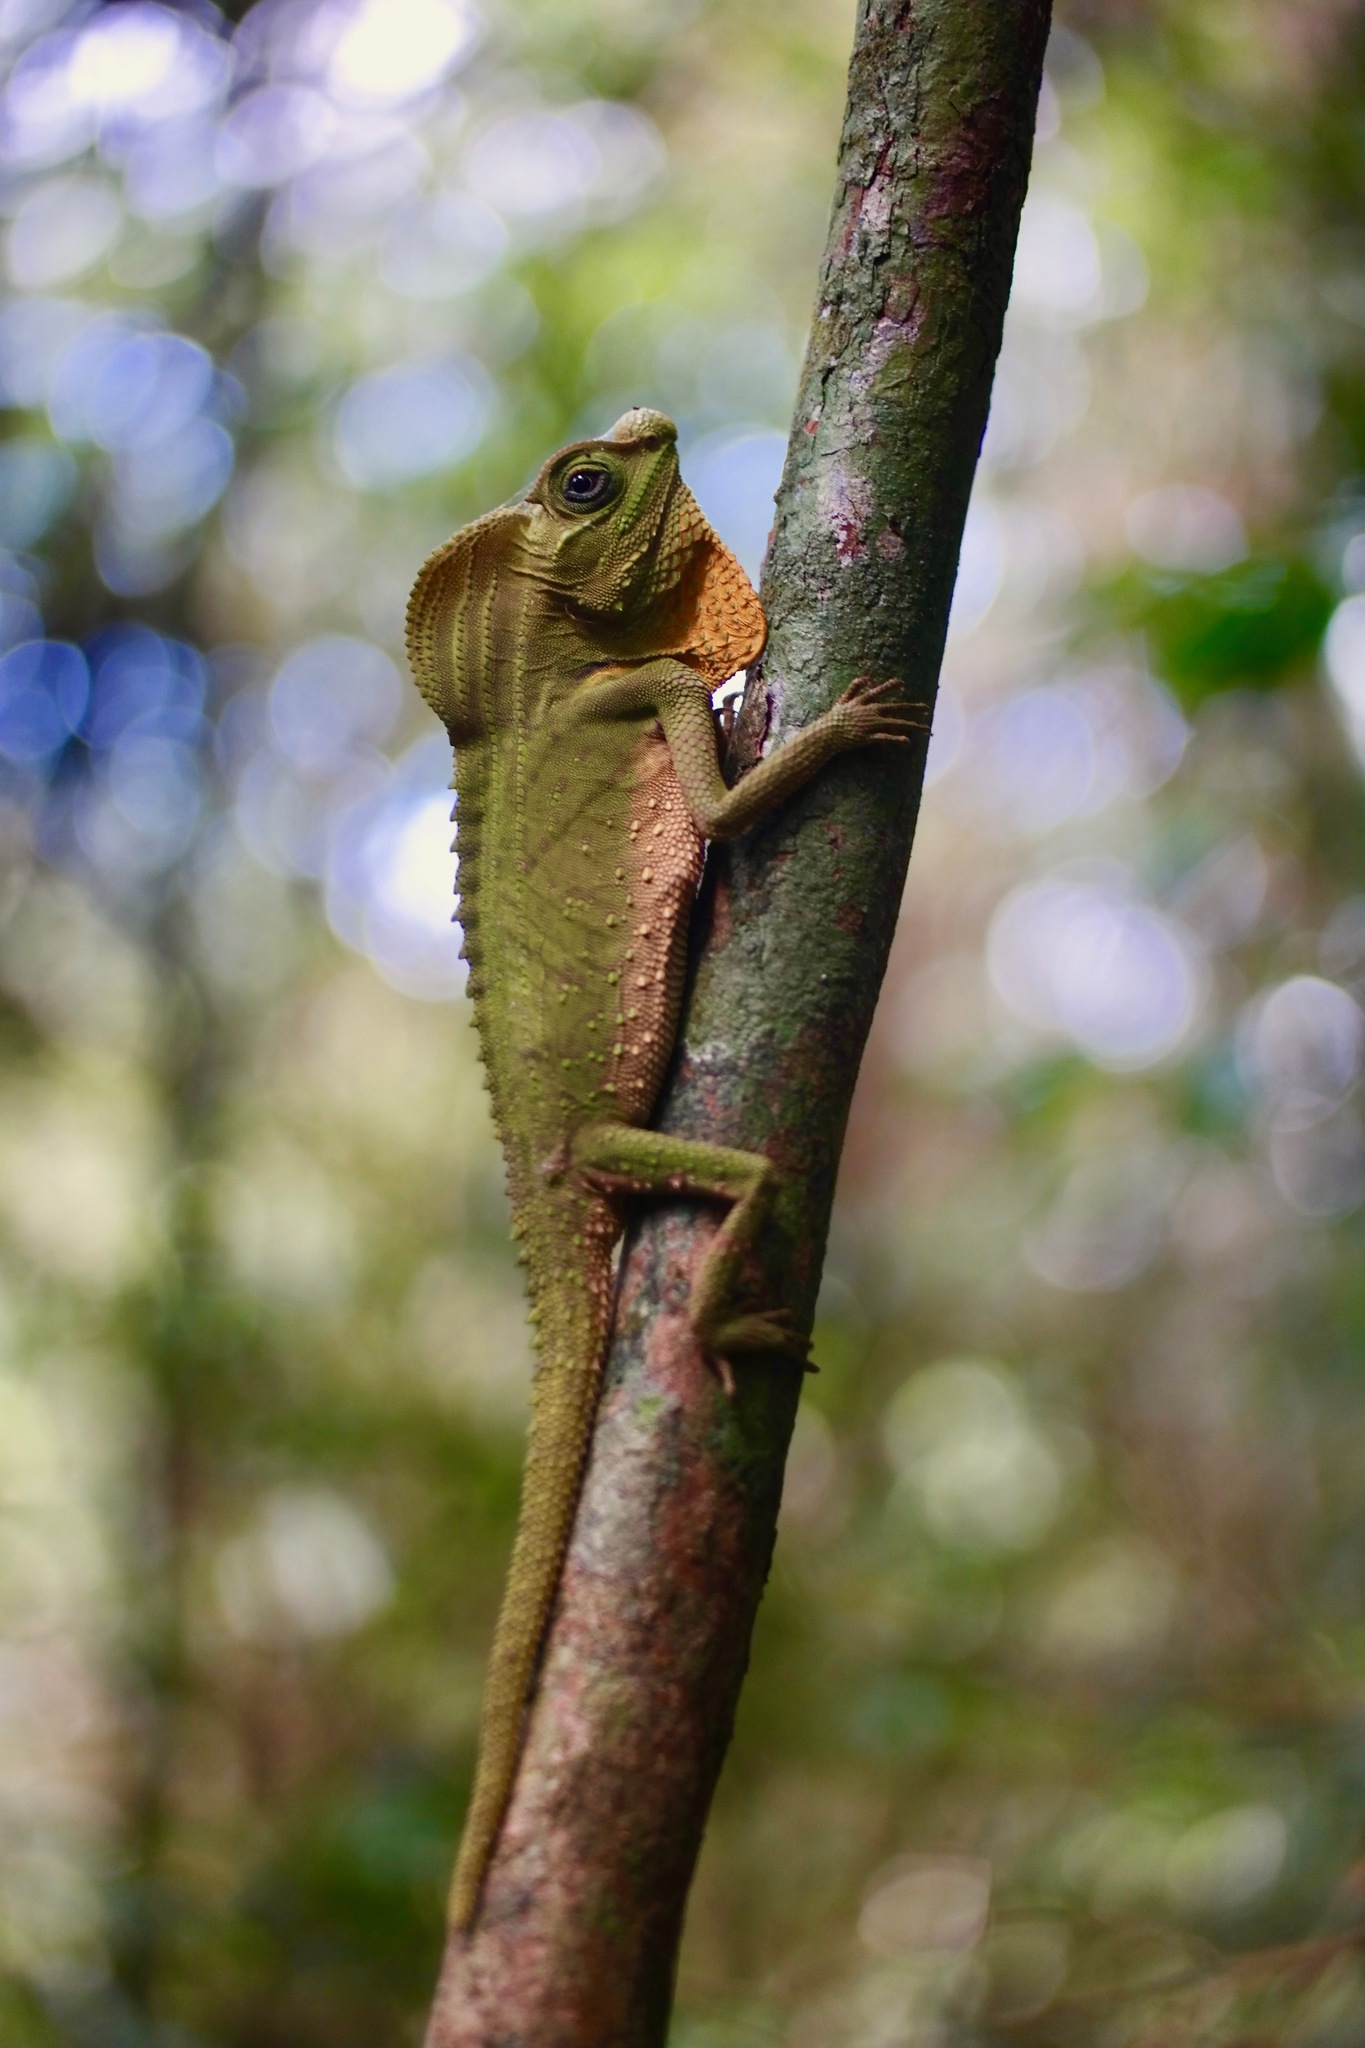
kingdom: Animalia
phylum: Chordata
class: Squamata
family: Agamidae
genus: Lyriocephalus
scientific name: Lyriocephalus scutatus
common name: Hump snout lizard
